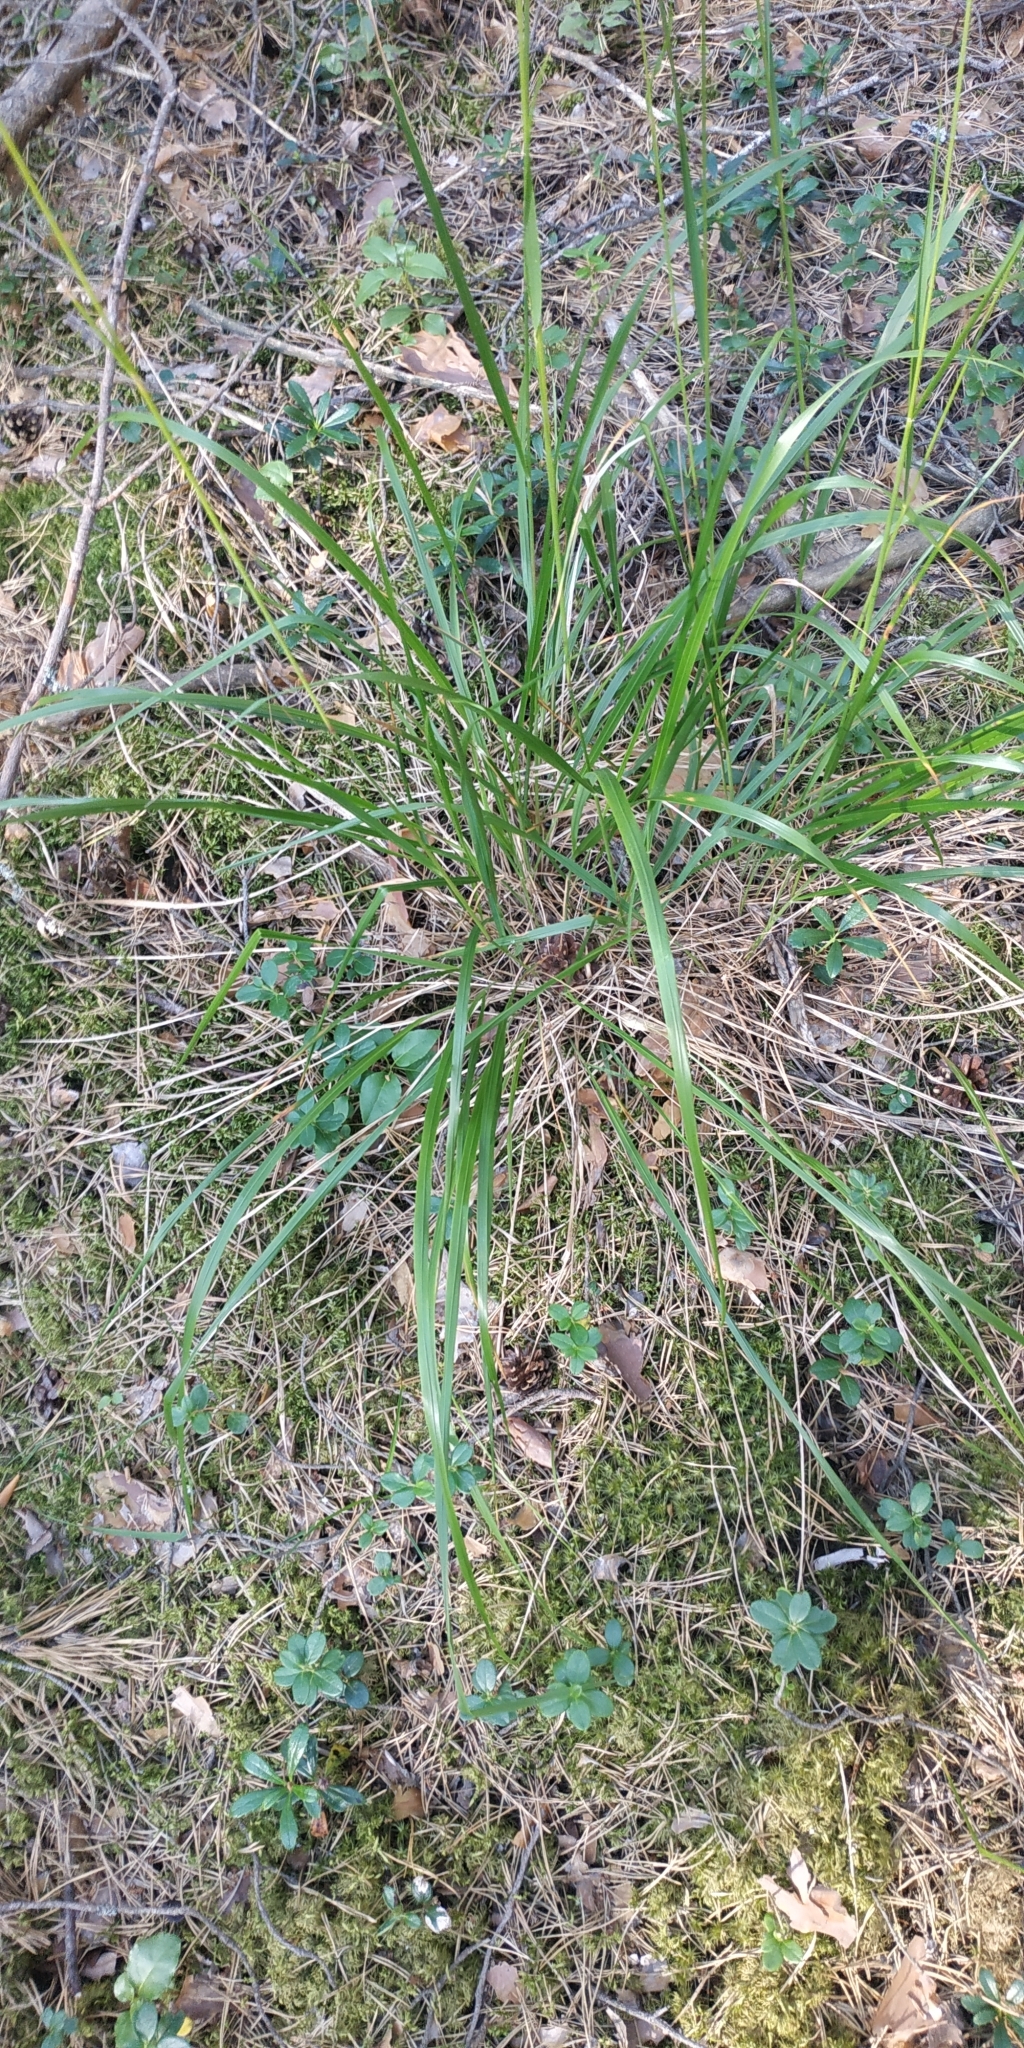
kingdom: Plantae
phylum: Tracheophyta
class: Liliopsida
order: Poales
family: Poaceae
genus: Calamagrostis
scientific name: Calamagrostis arundinacea
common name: Metskastik
